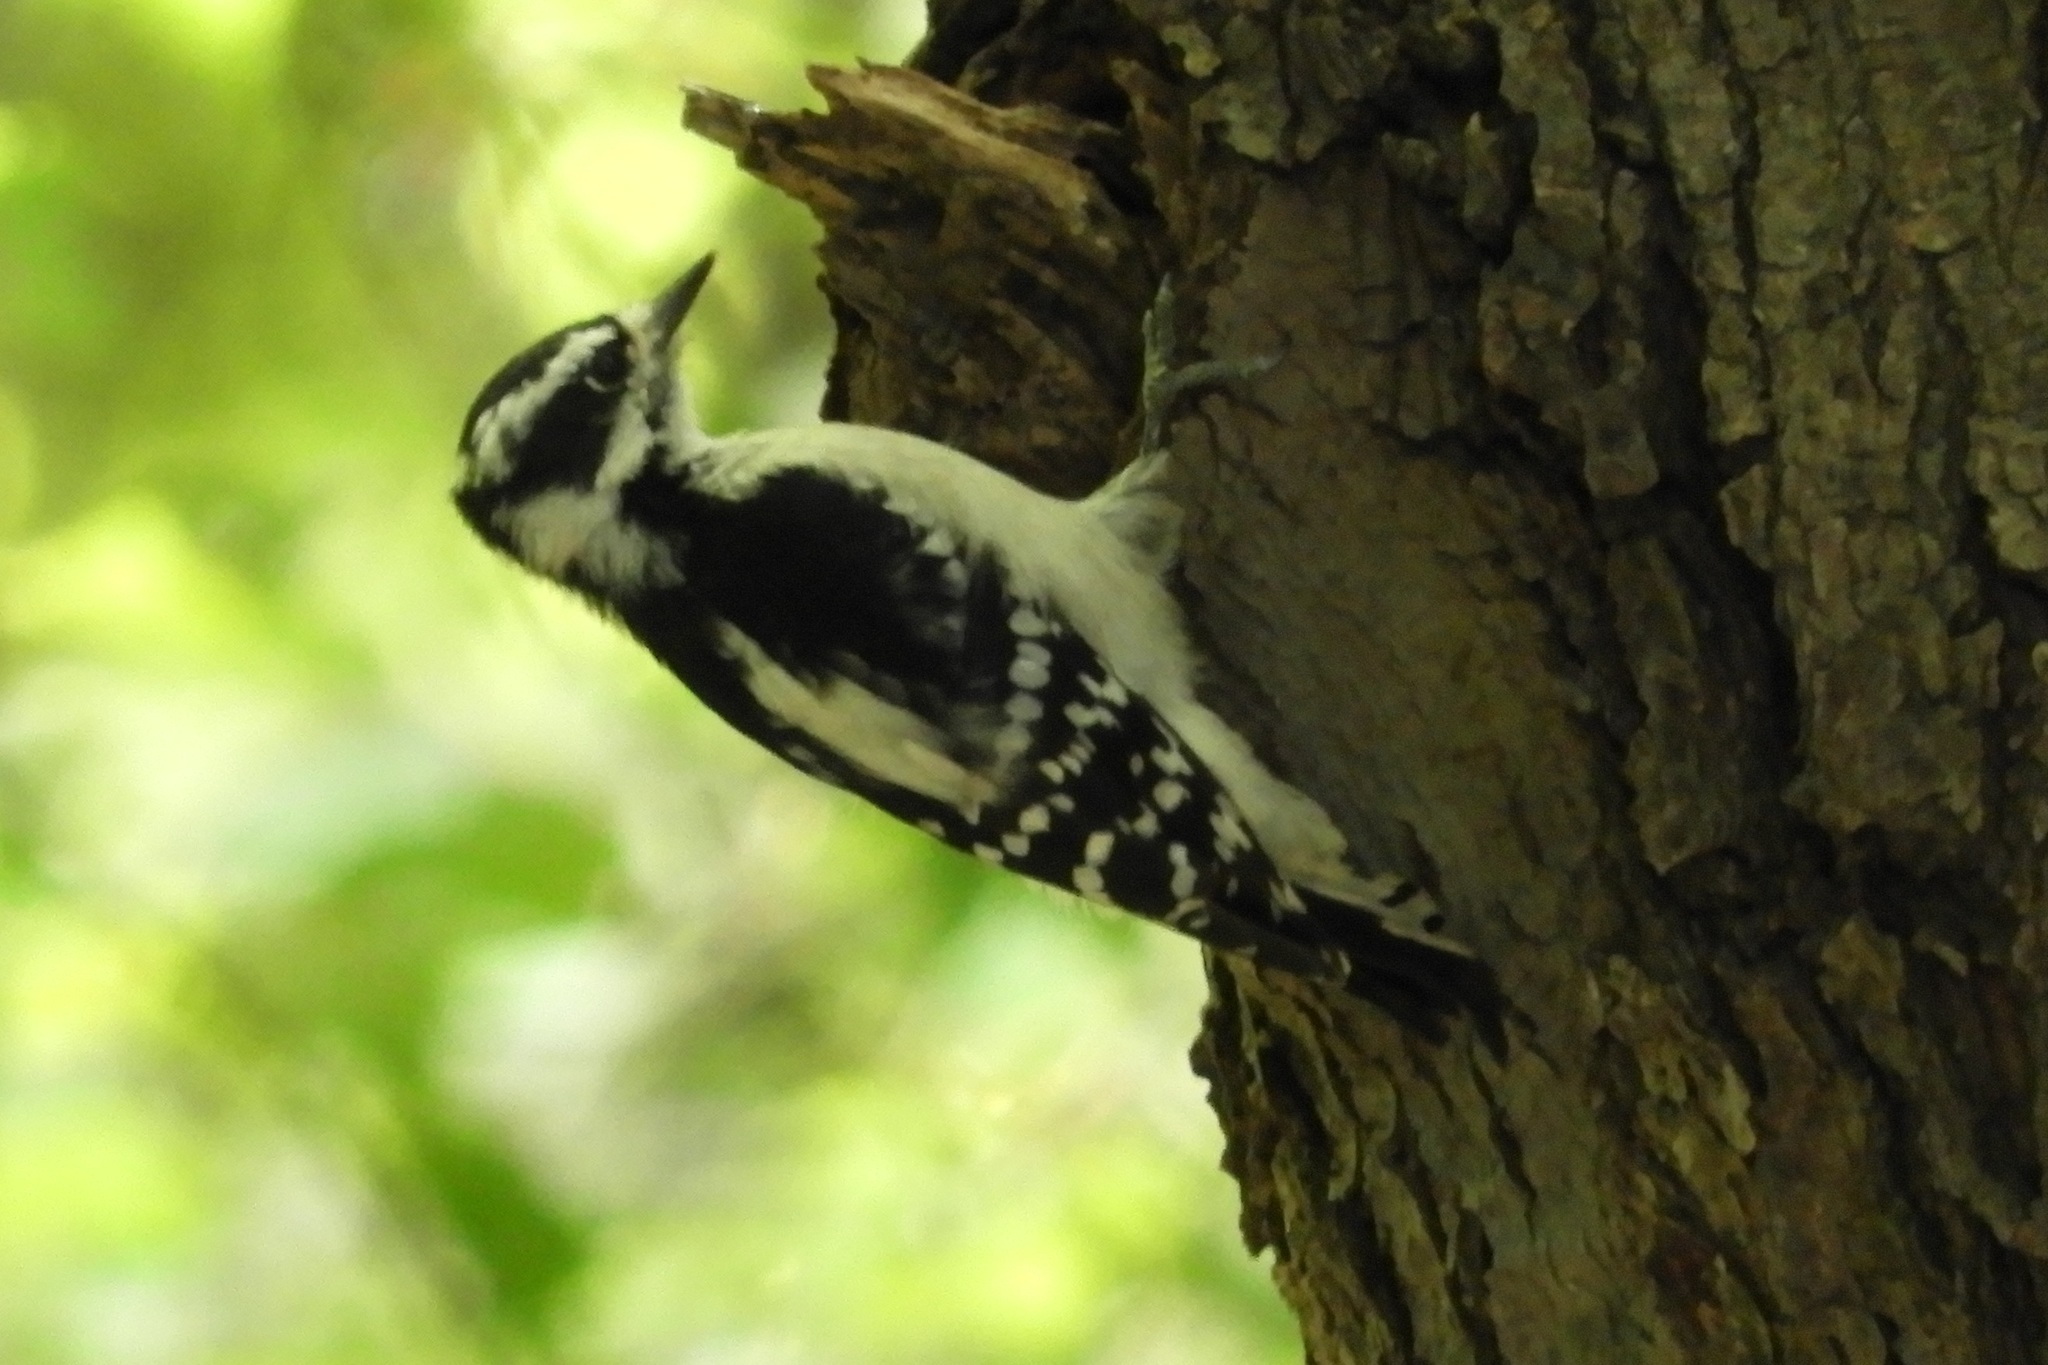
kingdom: Animalia
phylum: Chordata
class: Aves
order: Piciformes
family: Picidae
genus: Dryobates
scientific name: Dryobates pubescens
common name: Downy woodpecker
